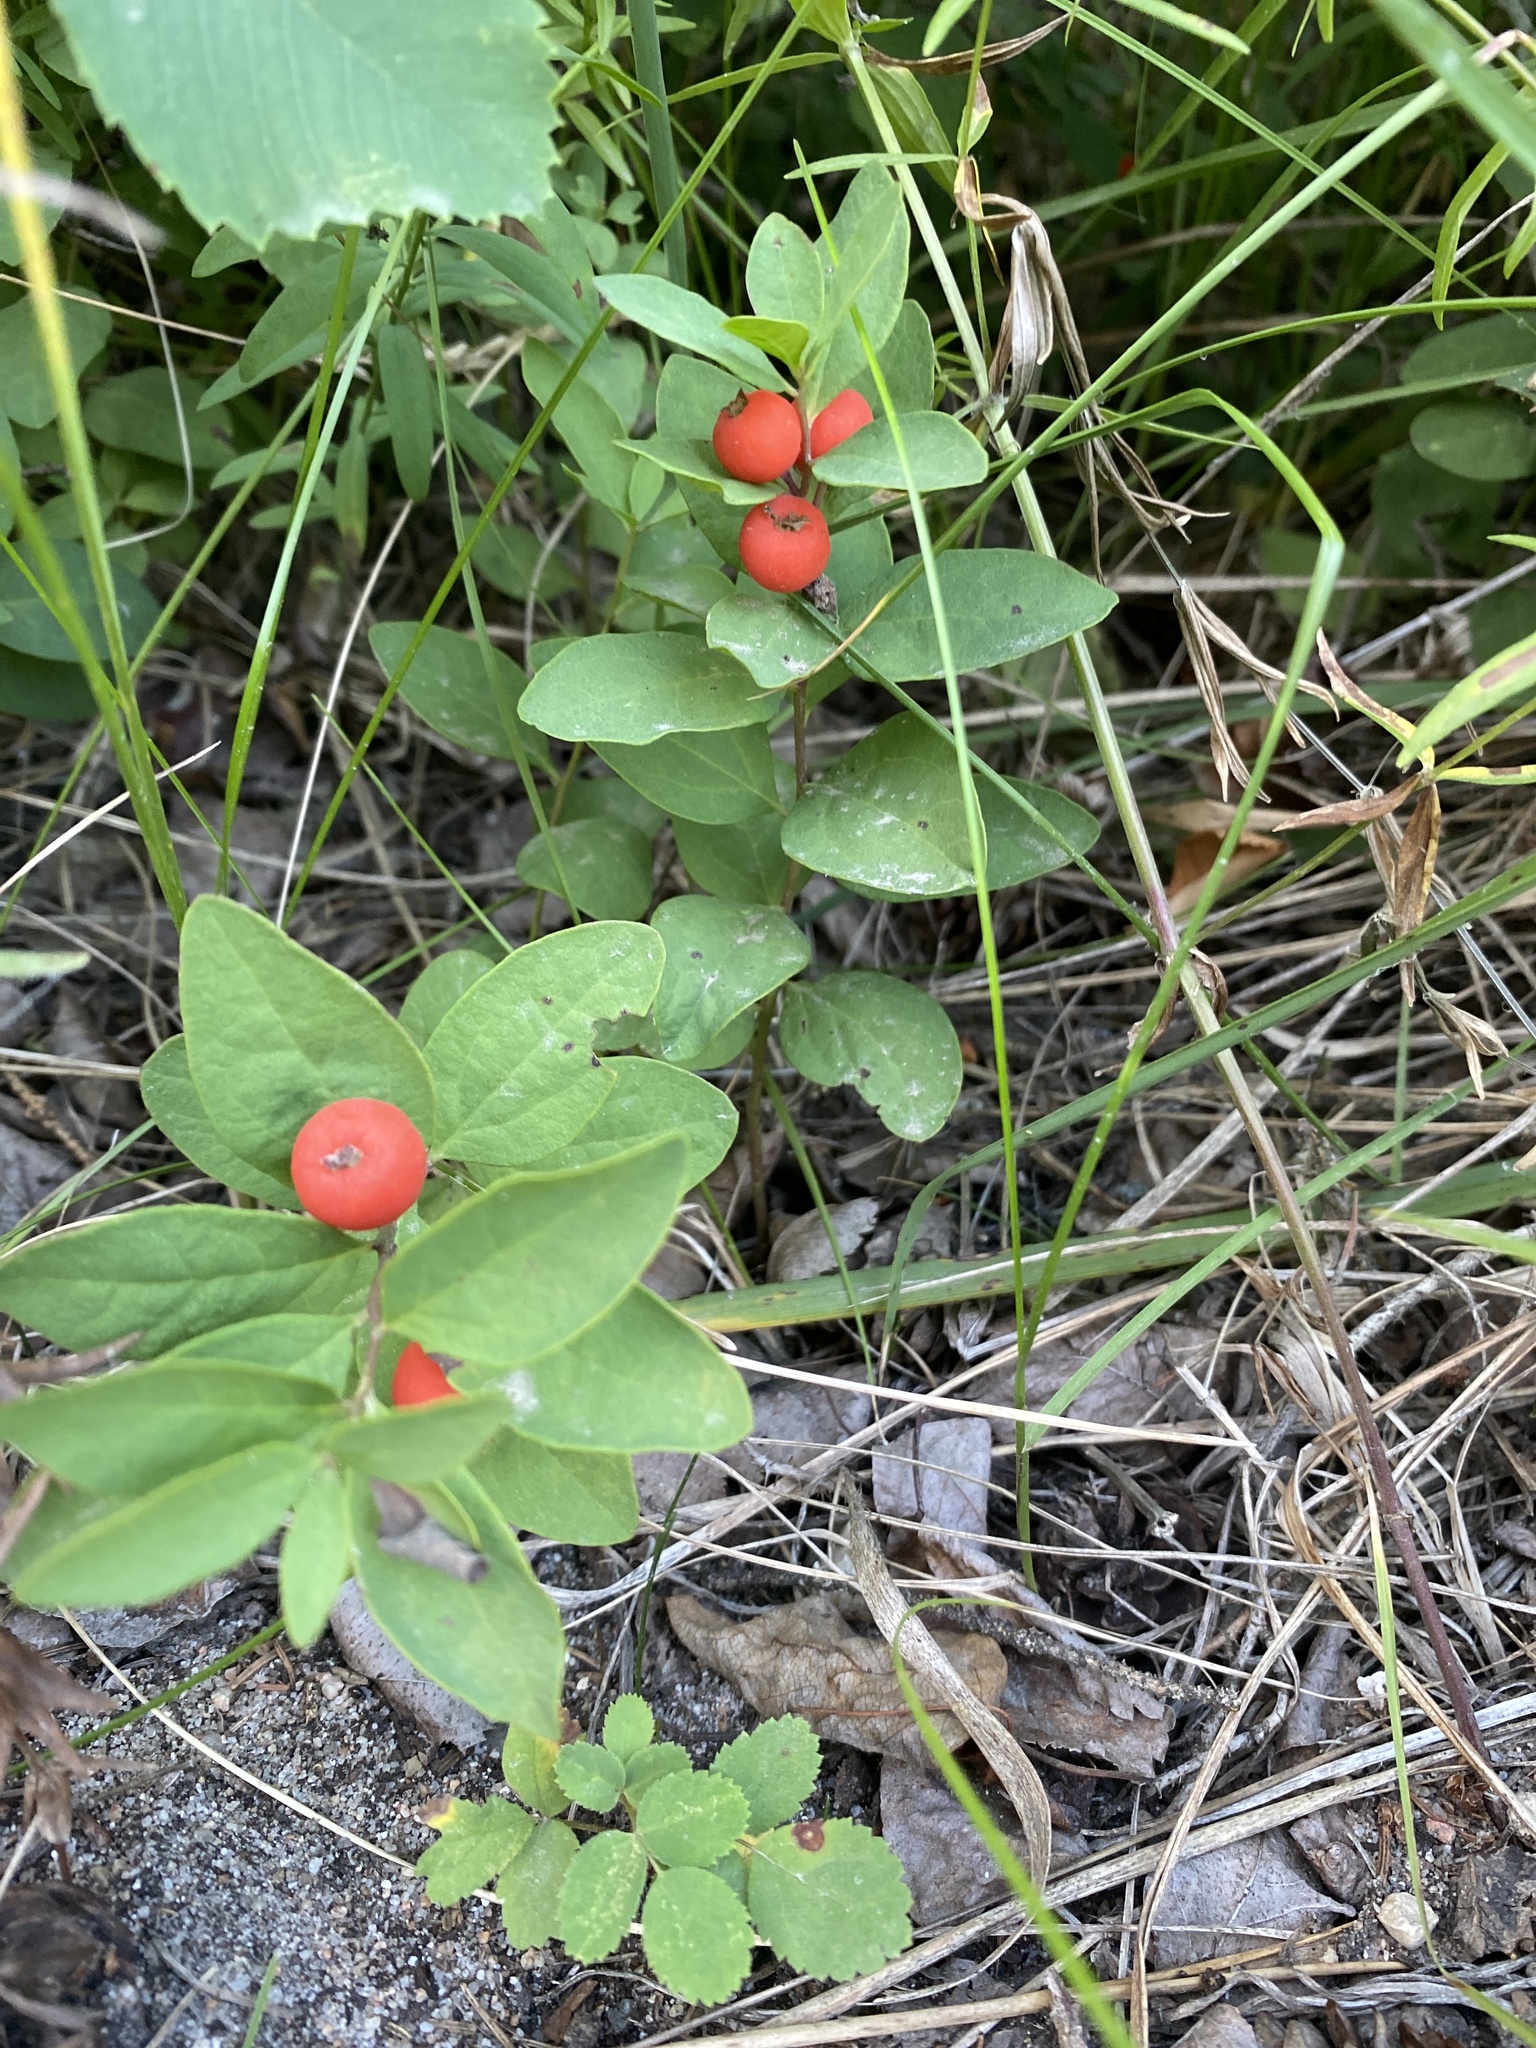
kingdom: Plantae
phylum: Tracheophyta
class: Magnoliopsida
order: Santalales
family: Comandraceae
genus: Geocaulon
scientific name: Geocaulon lividum
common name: Earthberry
